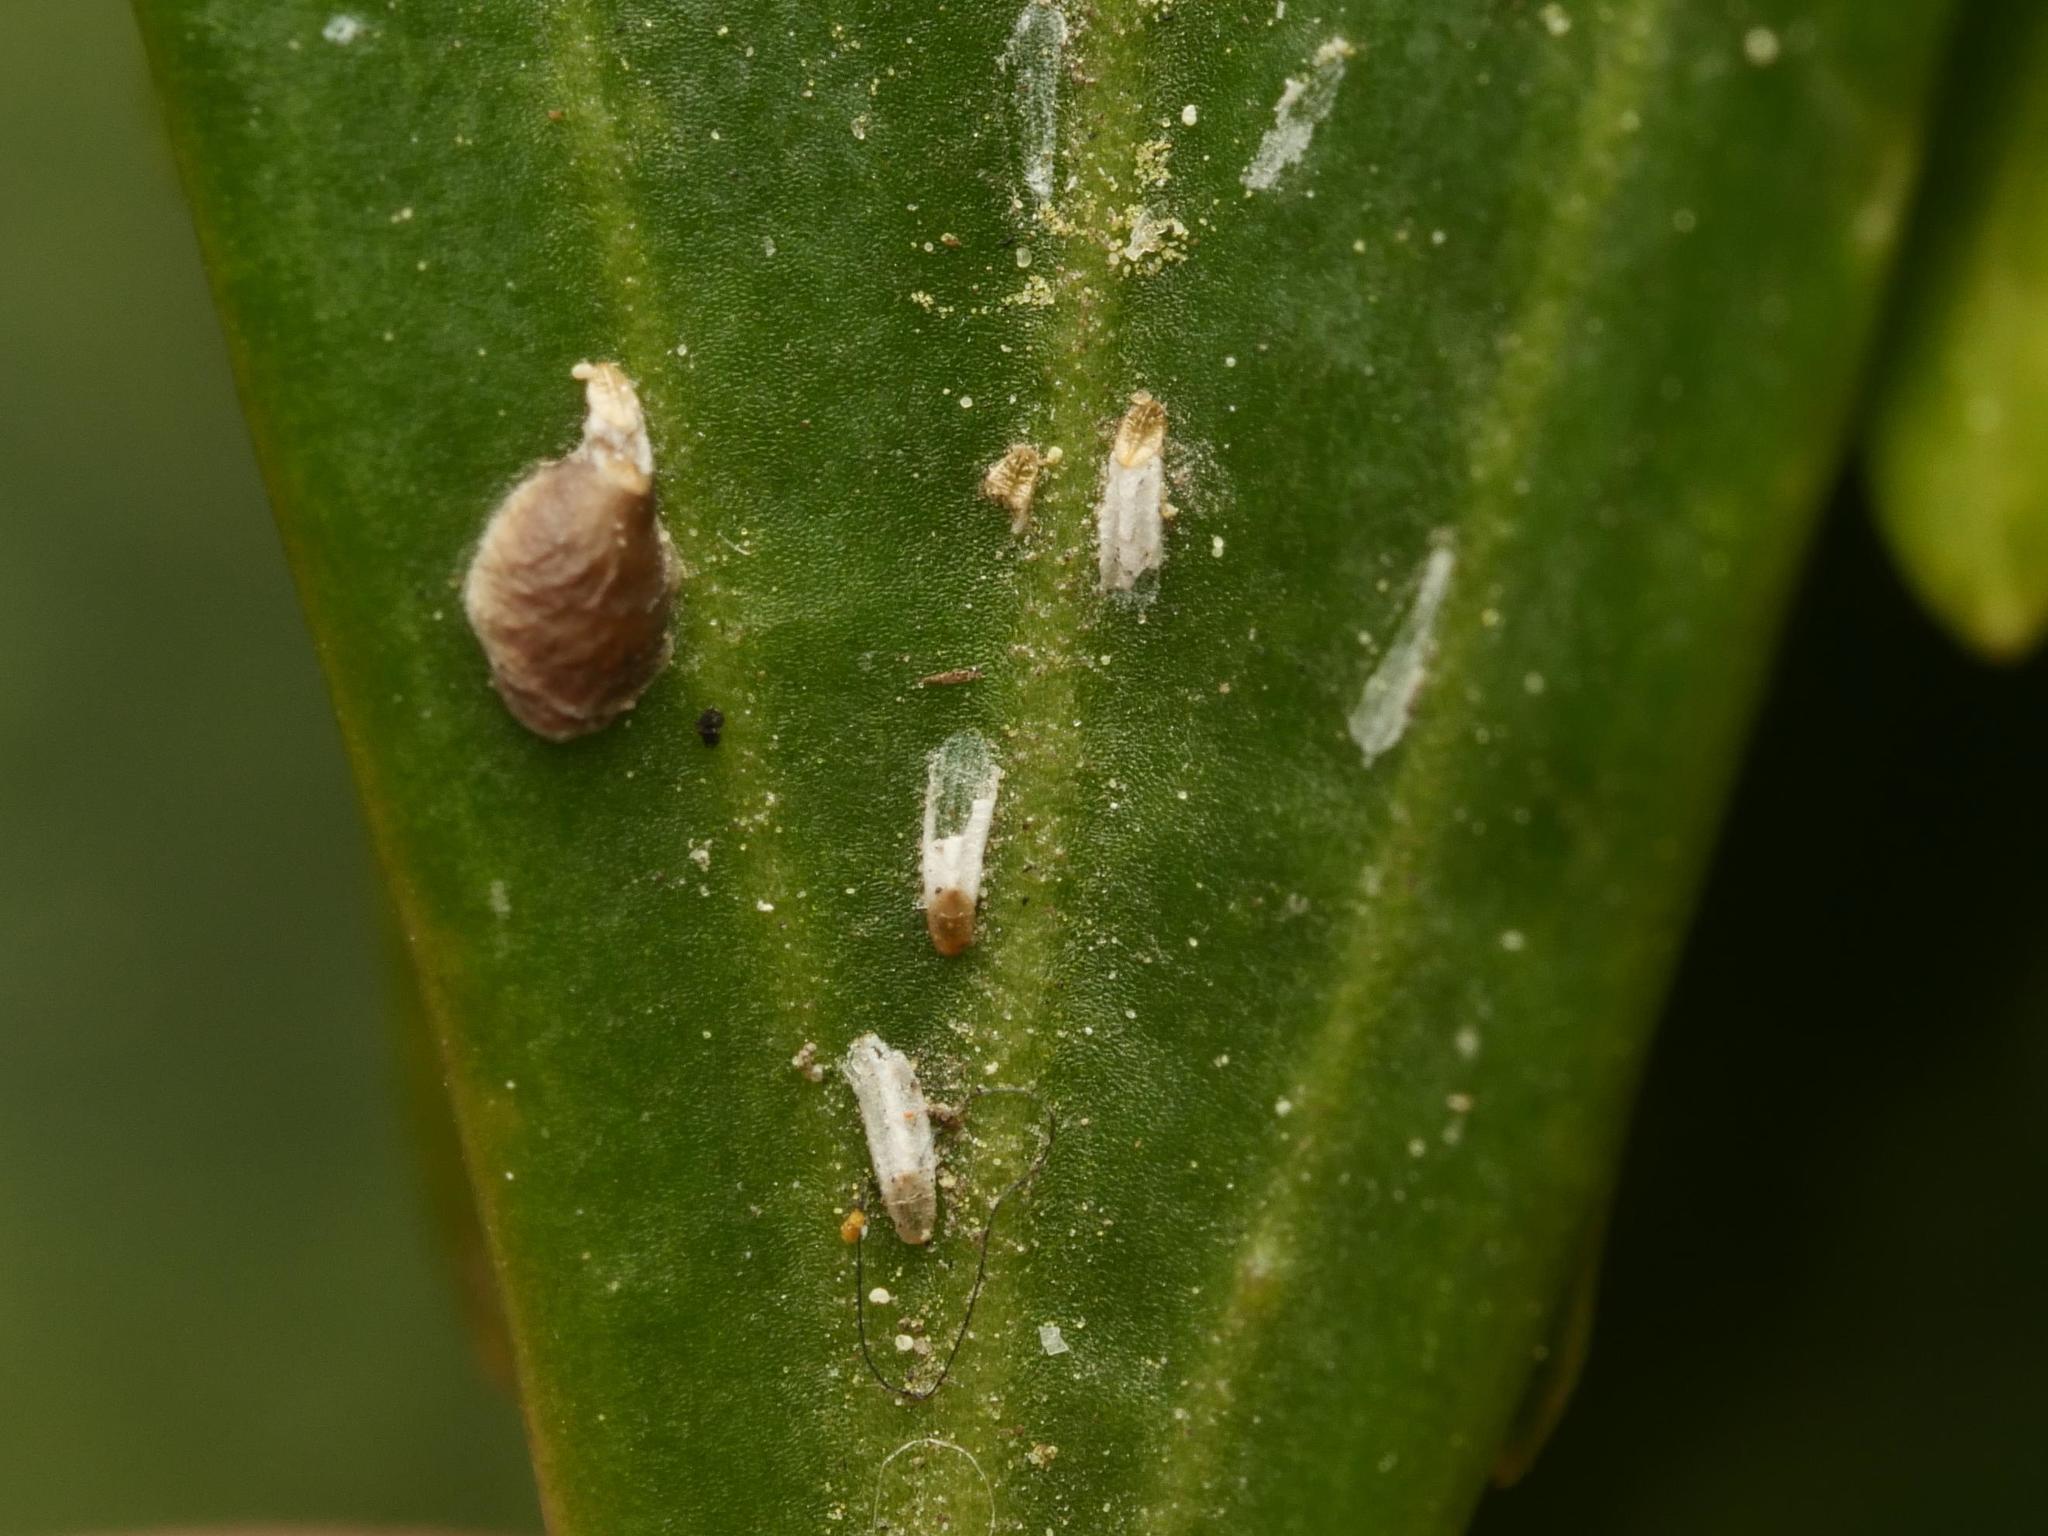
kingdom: Animalia
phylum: Arthropoda
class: Insecta
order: Hemiptera
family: Diaspididae
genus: Unaspis
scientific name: Unaspis euonymi
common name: Euonymus scale
